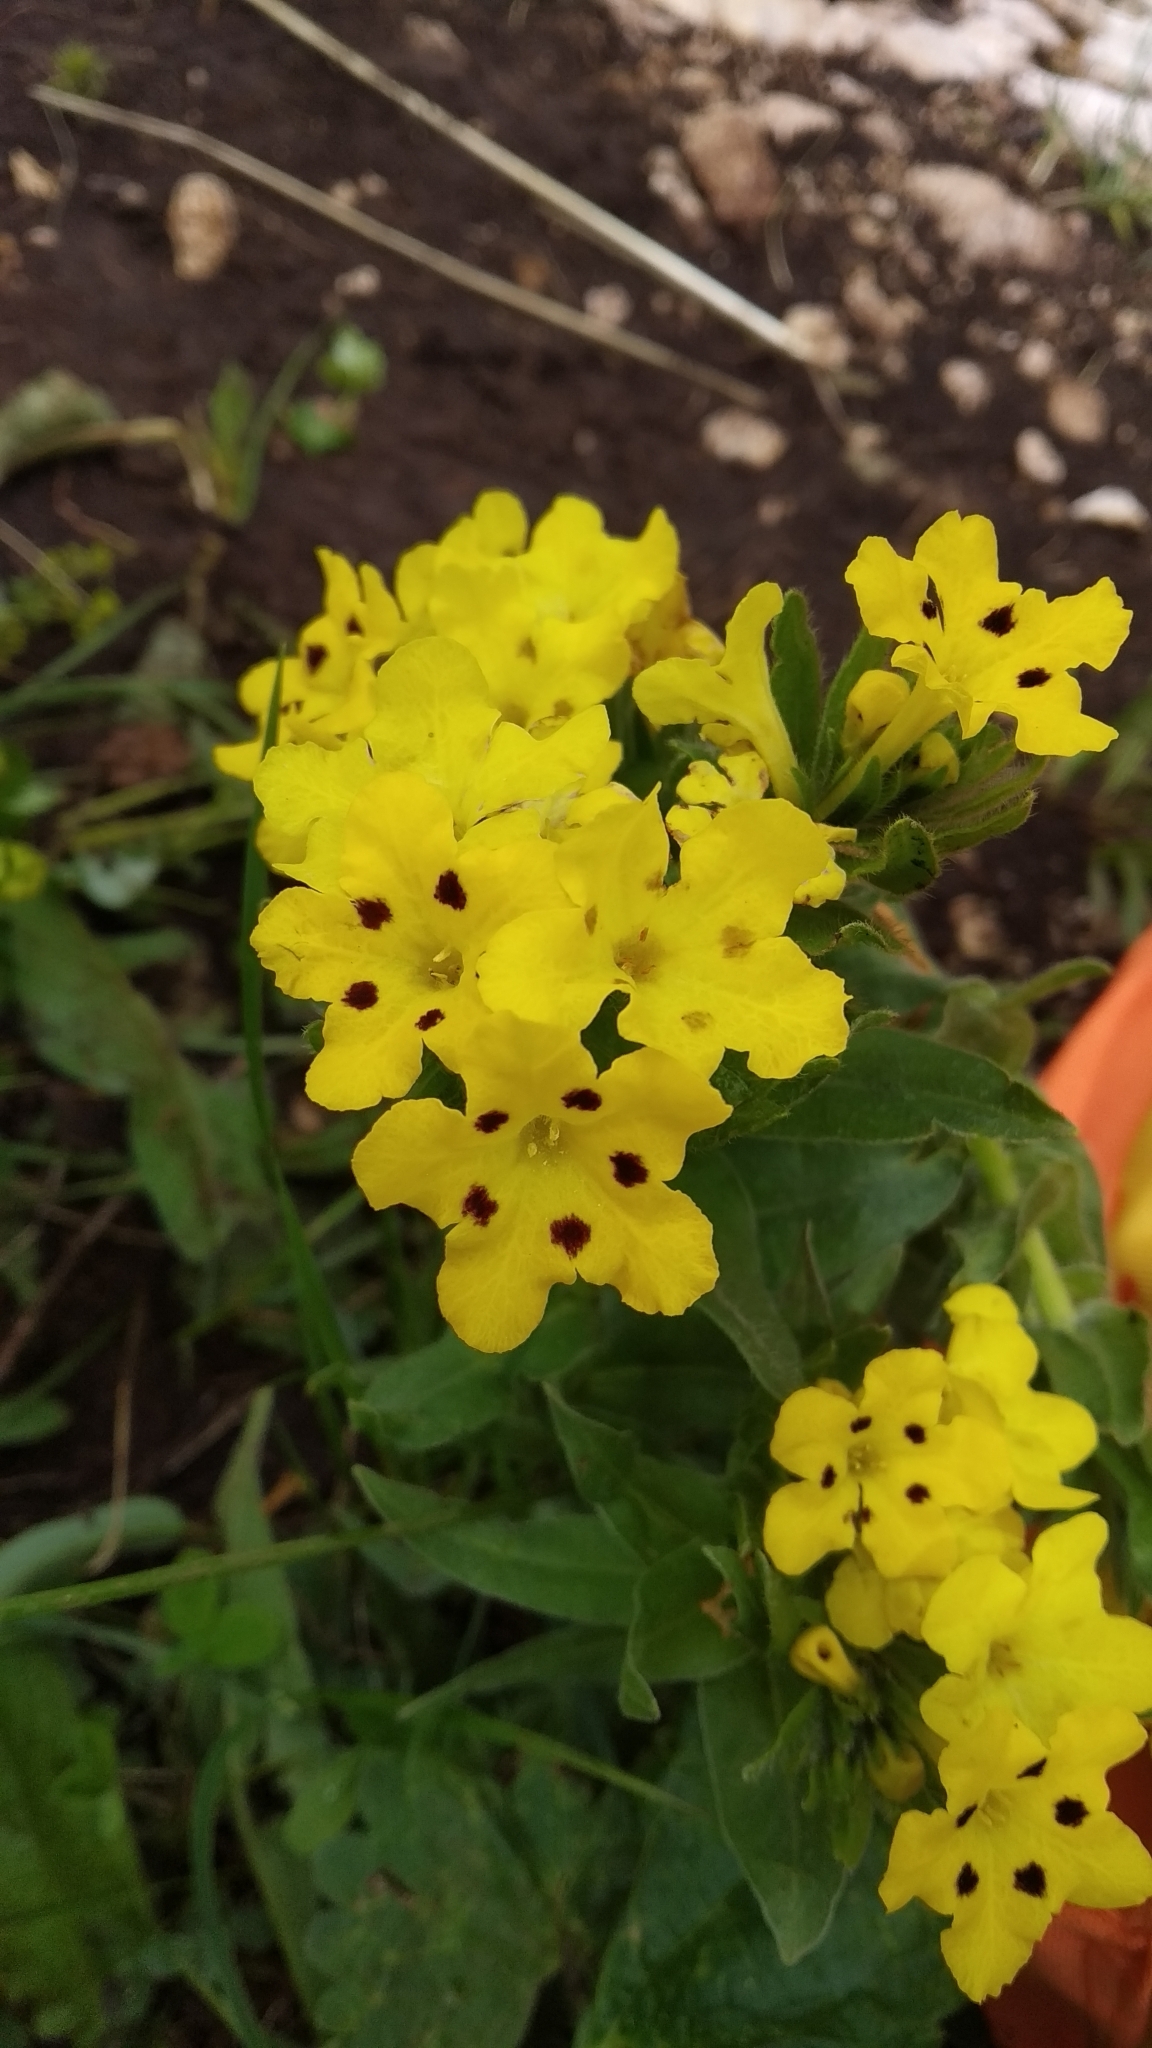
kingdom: Plantae
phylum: Tracheophyta
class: Magnoliopsida
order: Boraginales
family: Boraginaceae
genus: Huynhia
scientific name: Huynhia pulchra
